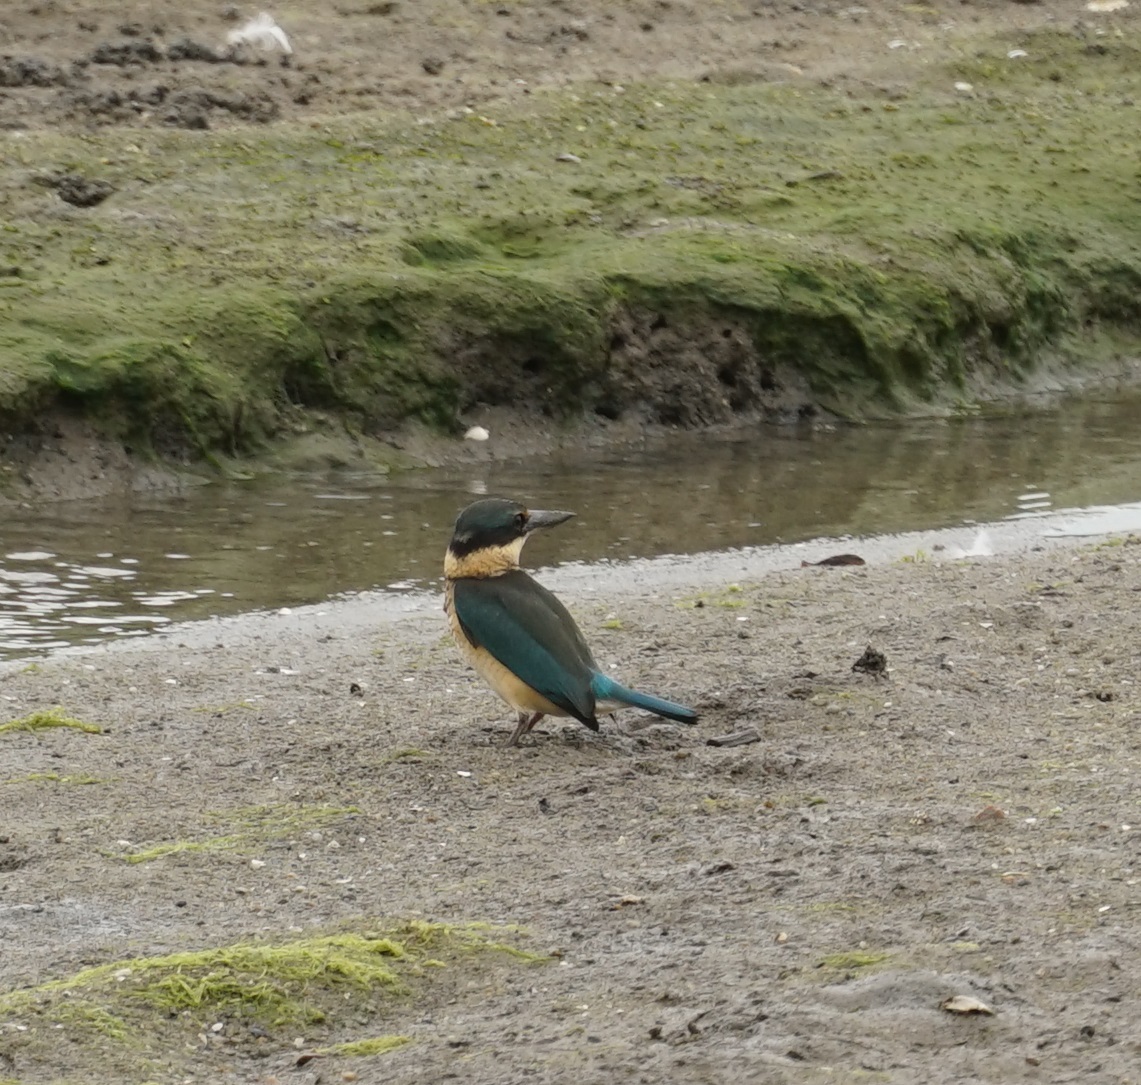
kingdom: Animalia
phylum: Chordata
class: Aves
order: Coraciiformes
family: Alcedinidae
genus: Todiramphus
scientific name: Todiramphus sanctus
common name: Sacred kingfisher
